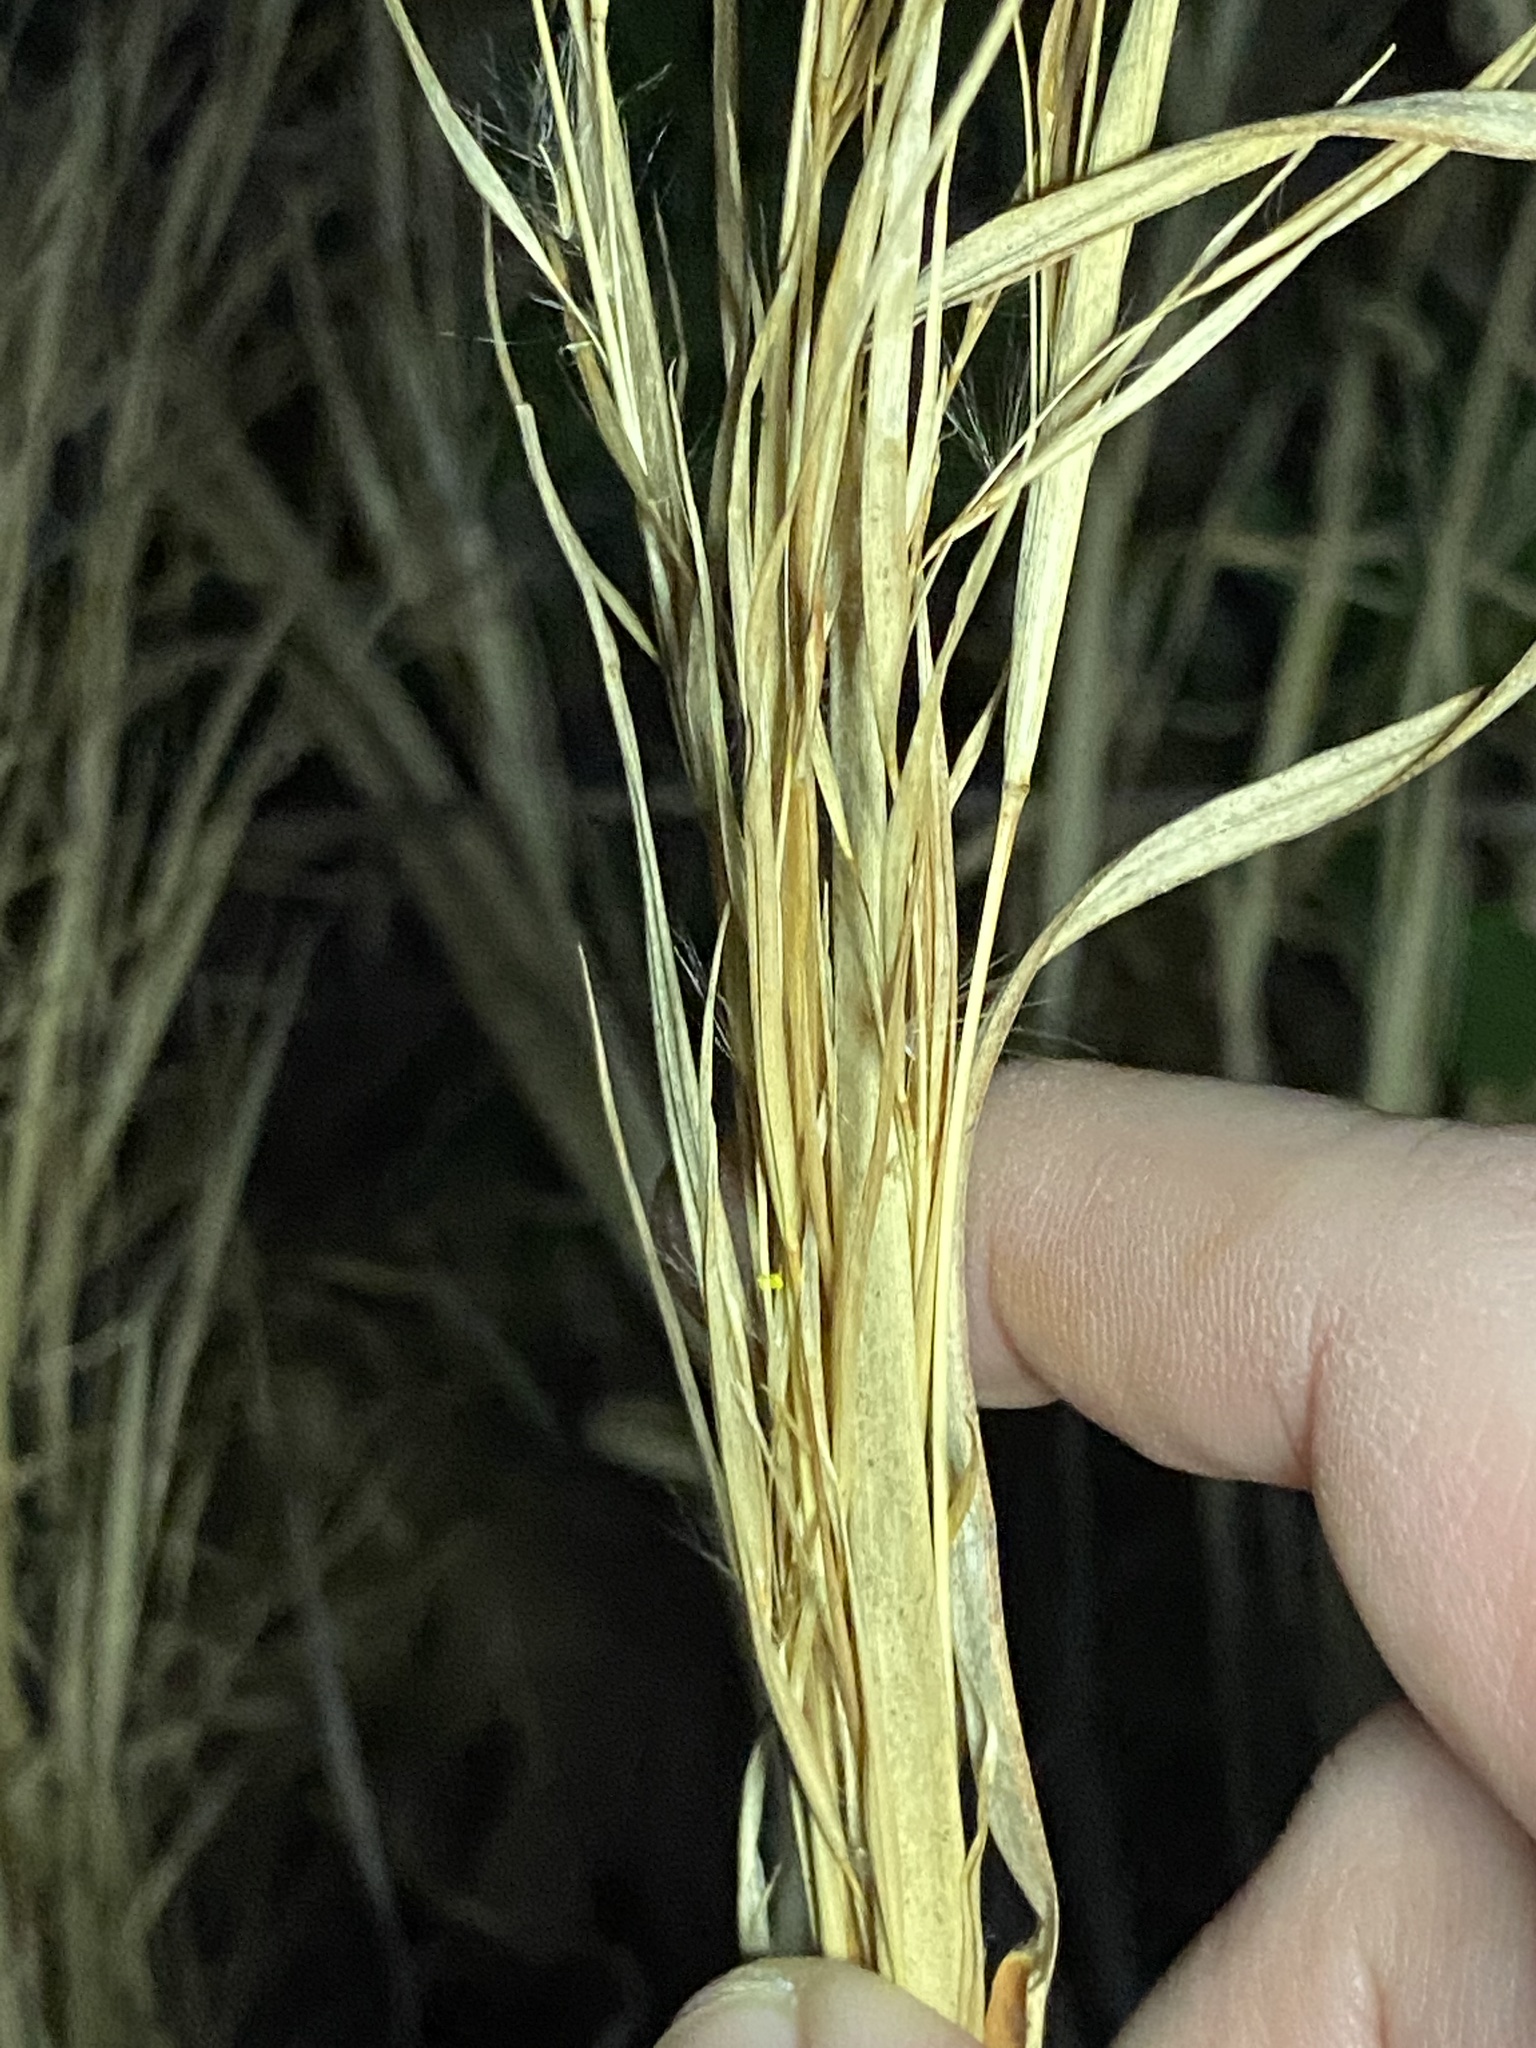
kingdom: Plantae
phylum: Tracheophyta
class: Liliopsida
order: Poales
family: Poaceae
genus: Andropogon
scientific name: Andropogon virginicus
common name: Broomsedge bluestem
